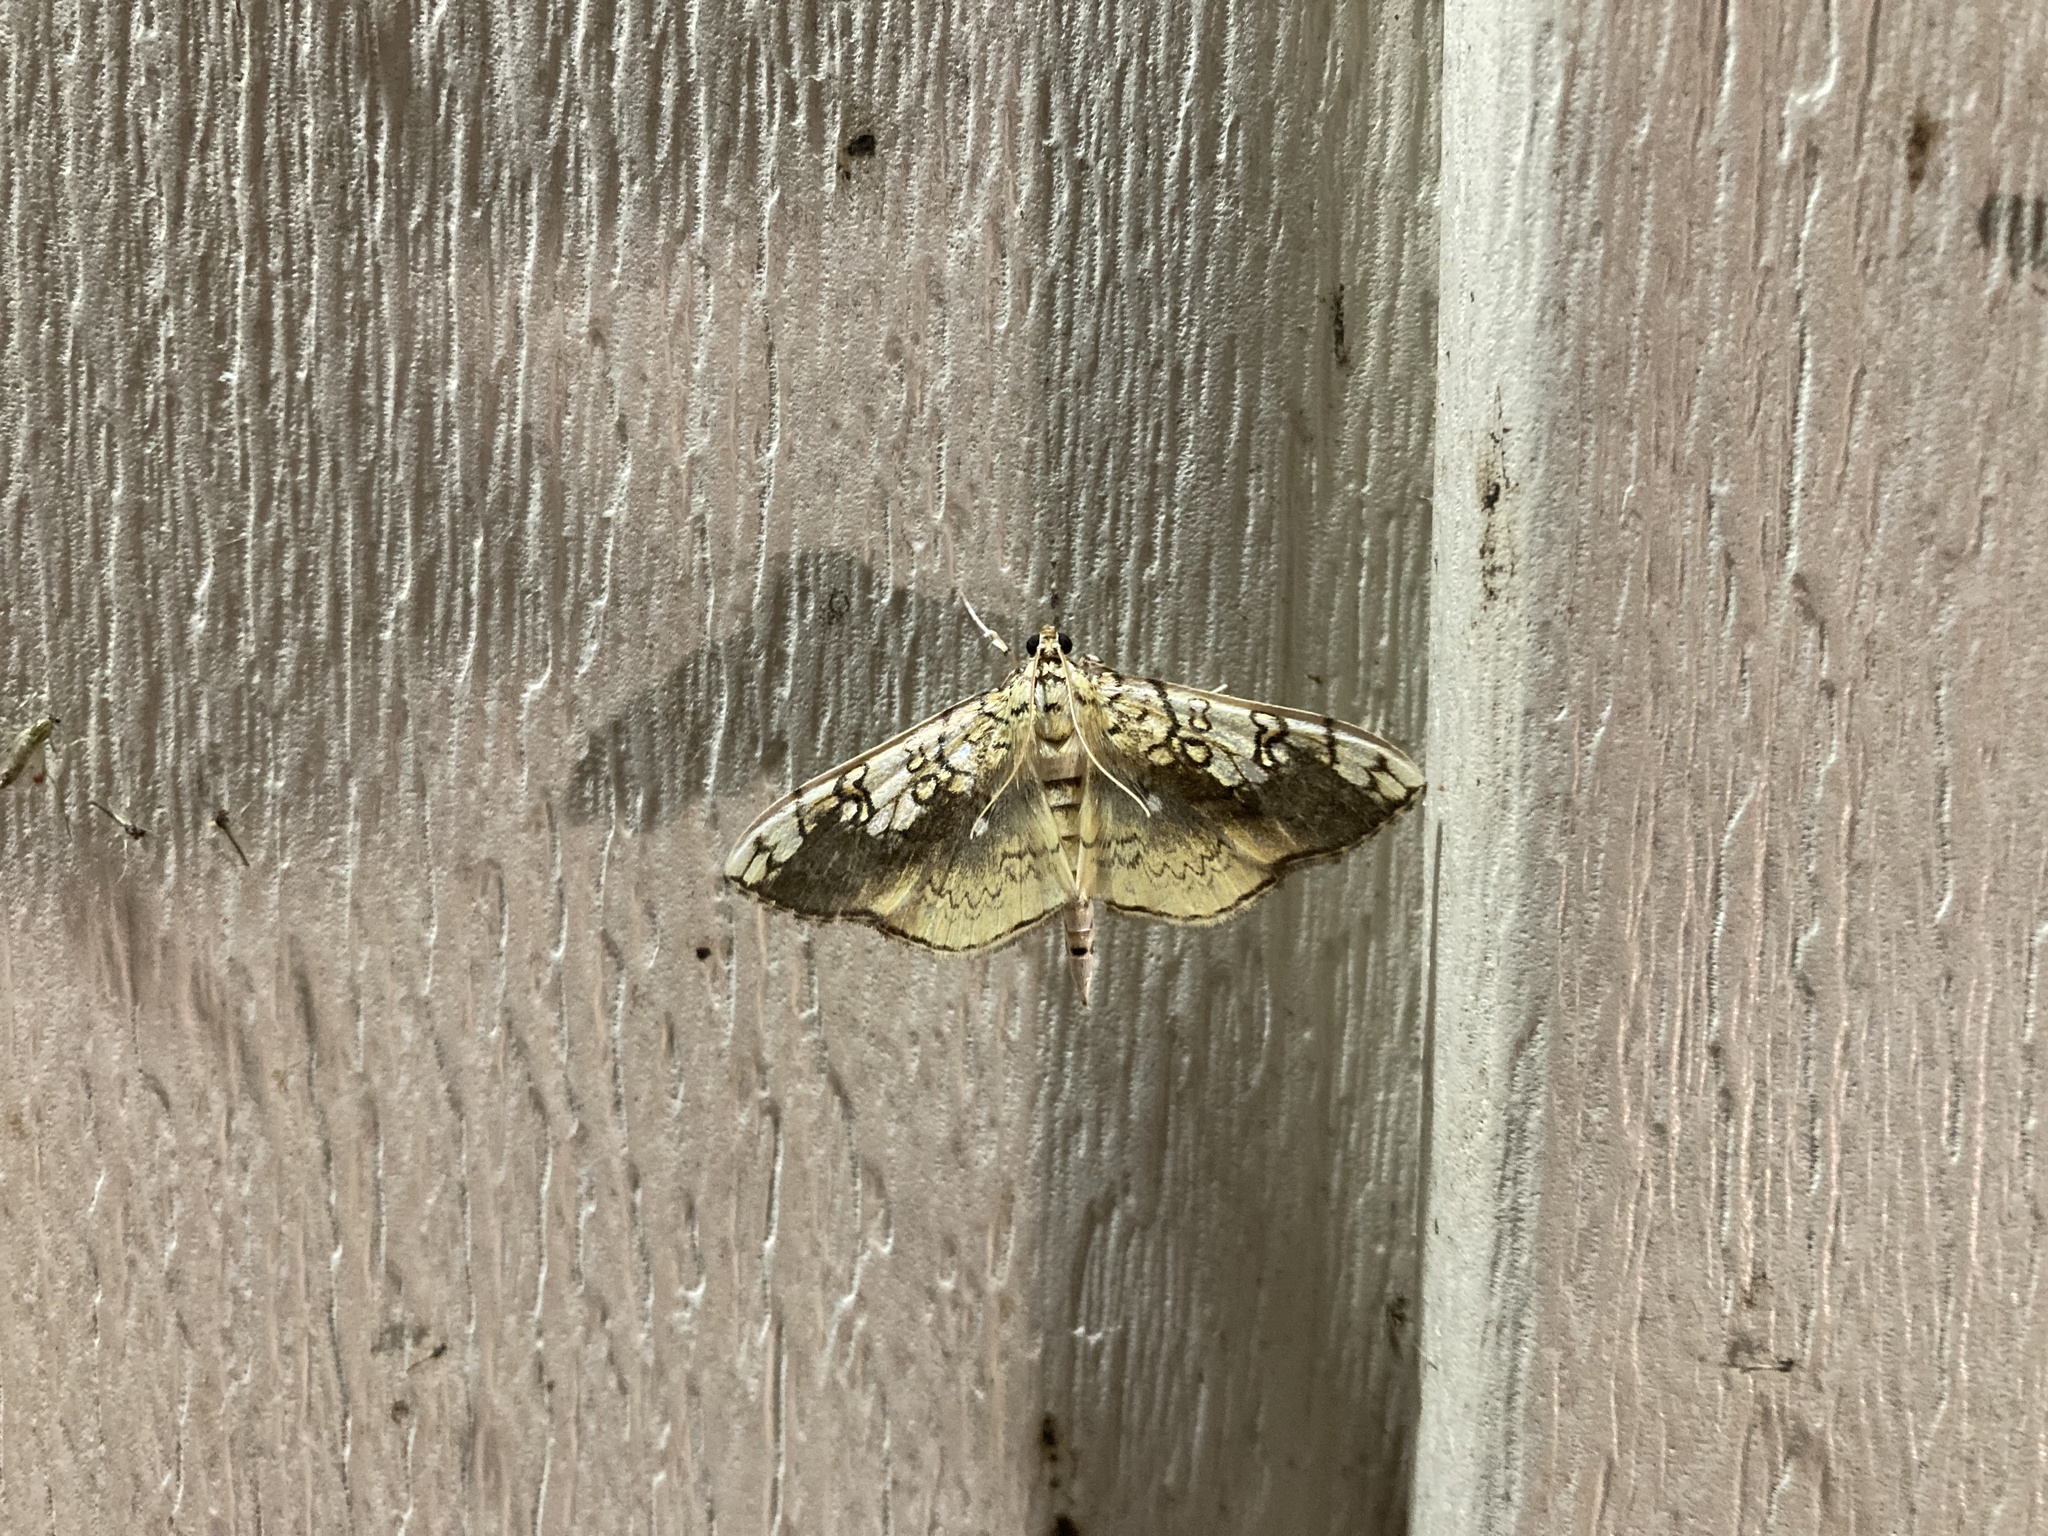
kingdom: Animalia
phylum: Arthropoda
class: Insecta
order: Lepidoptera
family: Crambidae
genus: Pantographa
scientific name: Pantographa limata
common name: Basswood leafroller moth
